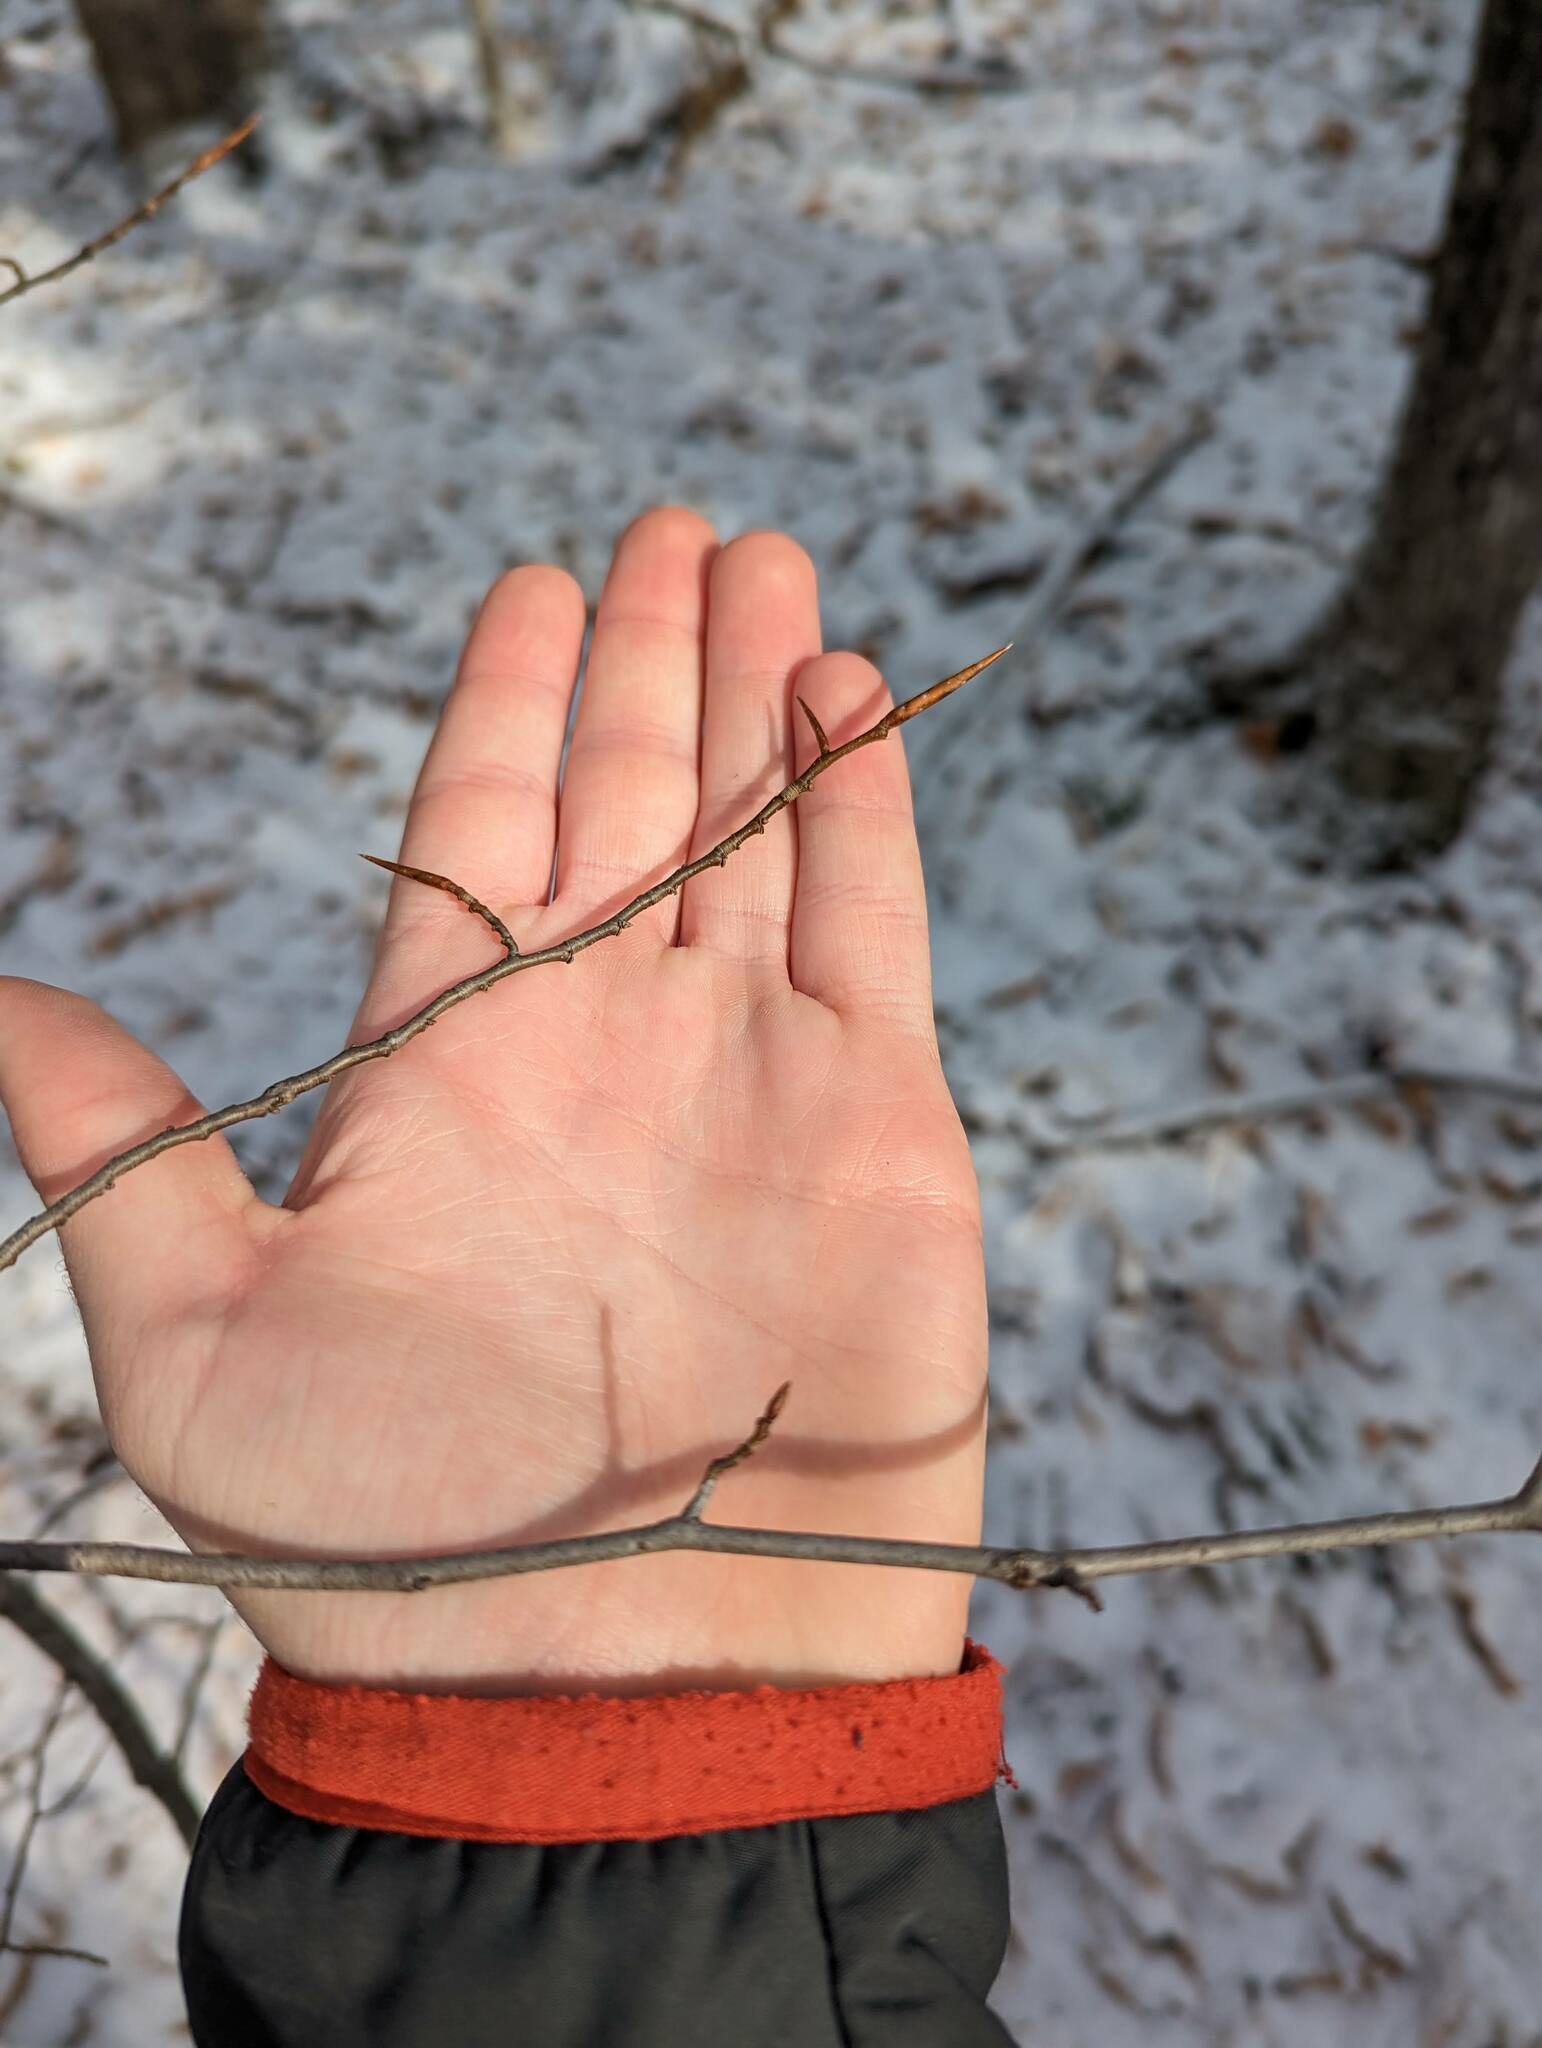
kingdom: Plantae
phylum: Tracheophyta
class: Magnoliopsida
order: Fagales
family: Fagaceae
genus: Fagus
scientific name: Fagus grandifolia
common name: American beech
